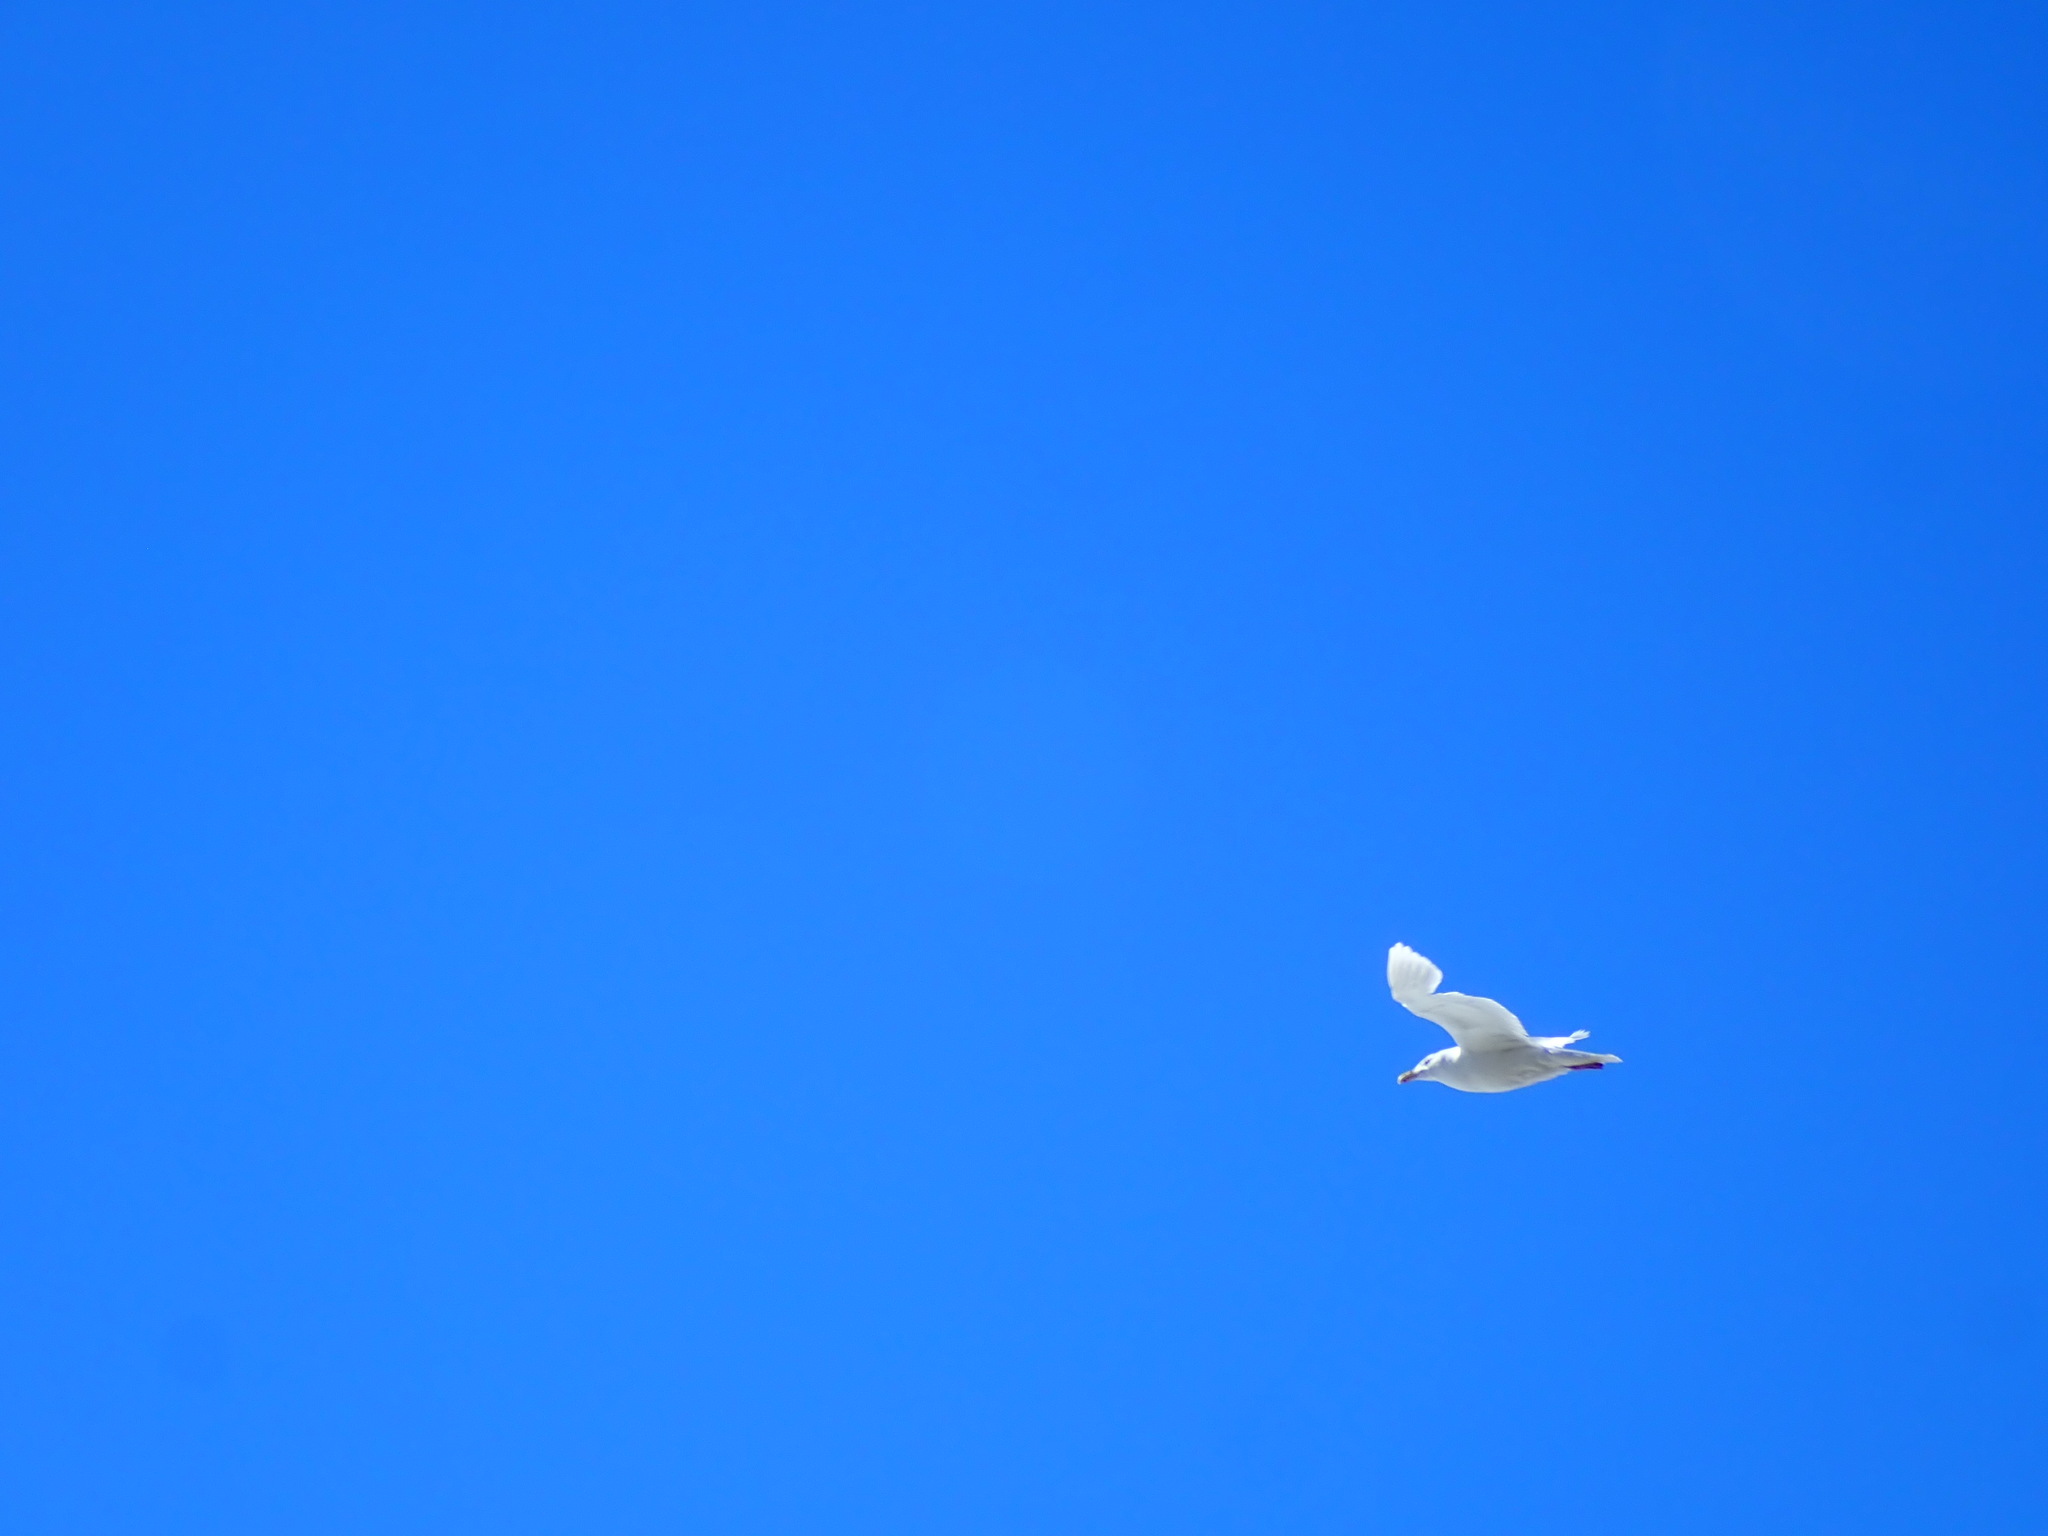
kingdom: Animalia
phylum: Chordata
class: Aves
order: Charadriiformes
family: Laridae
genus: Larus
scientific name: Larus hyperboreus
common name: Glaucous gull
